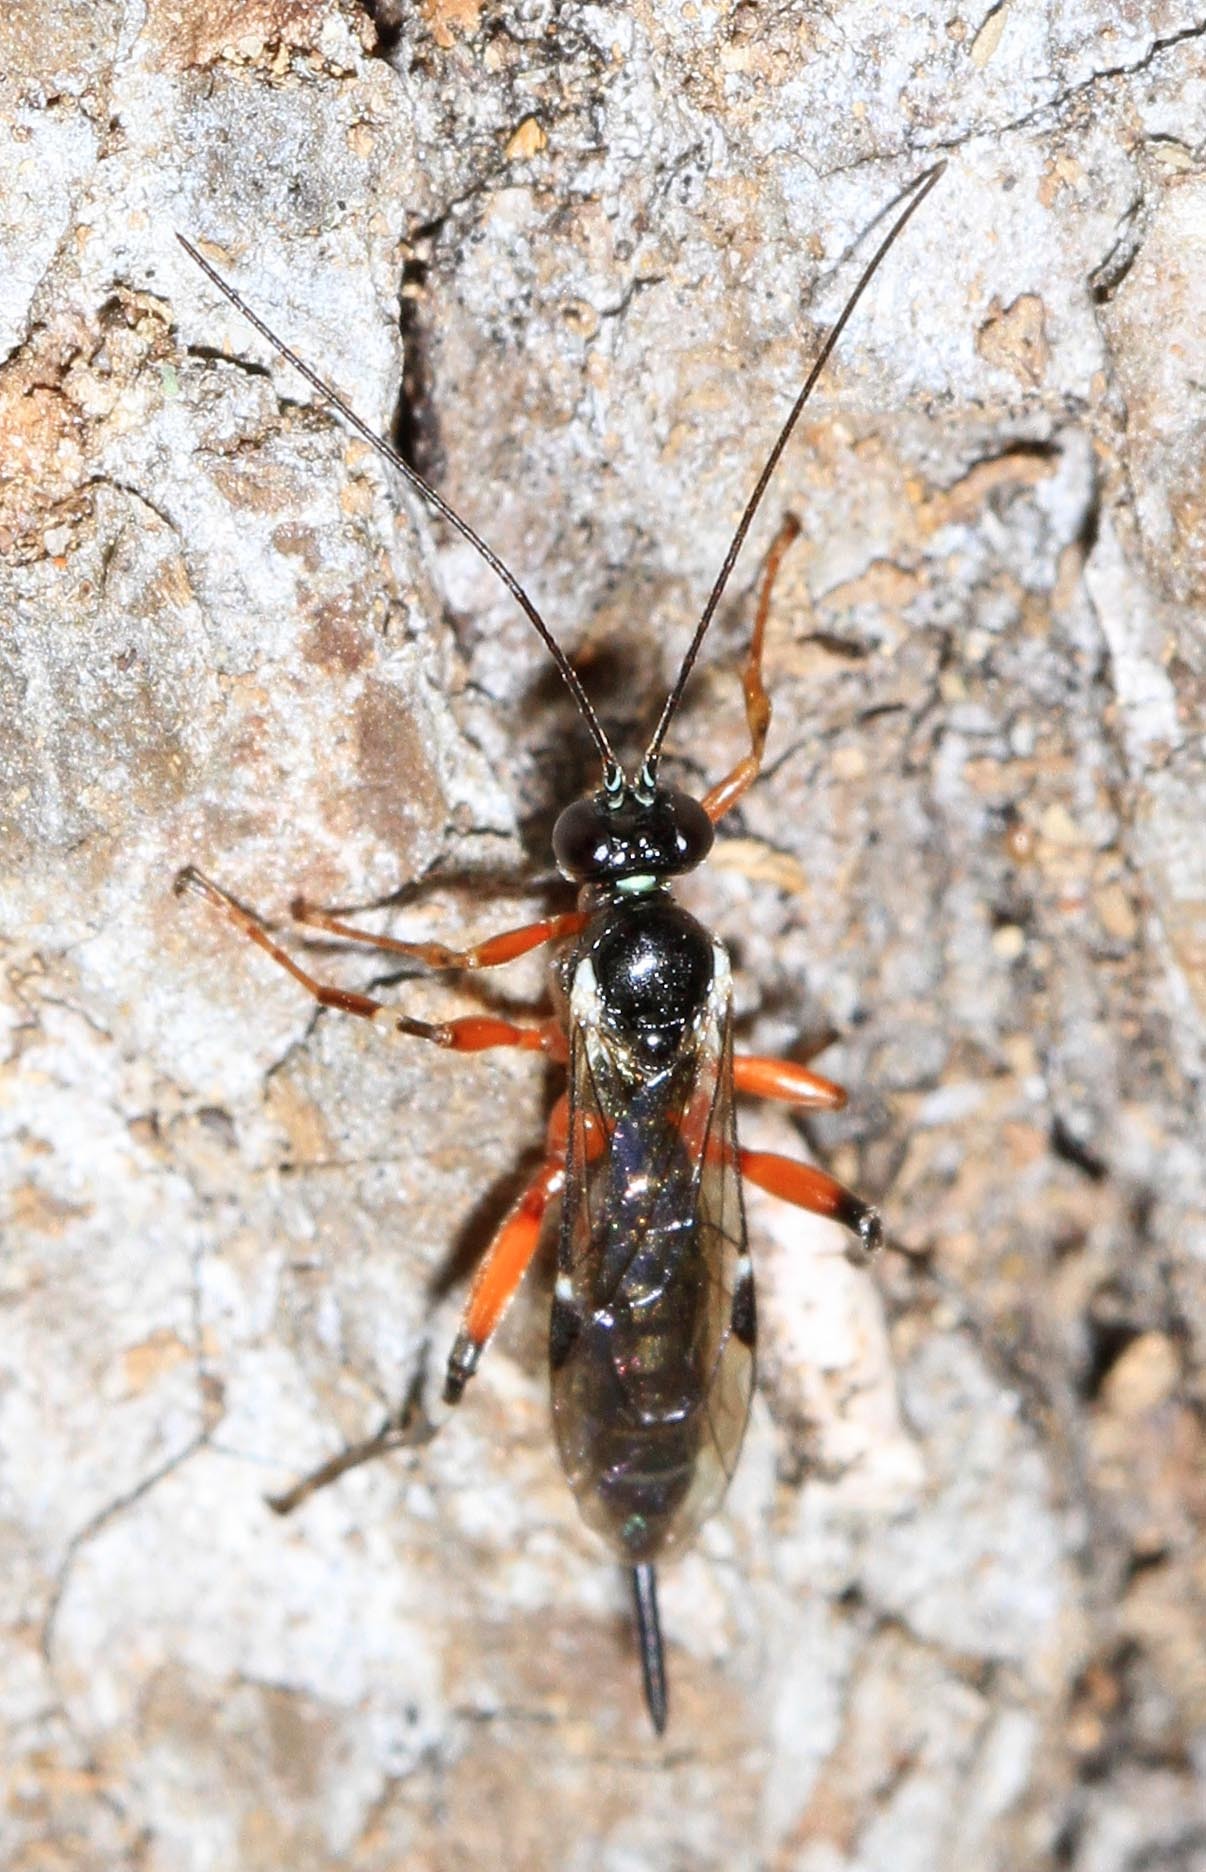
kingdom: Animalia
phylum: Arthropoda
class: Insecta
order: Hymenoptera
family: Ichneumonidae
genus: Itoplectis
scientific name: Itoplectis conquisitor
